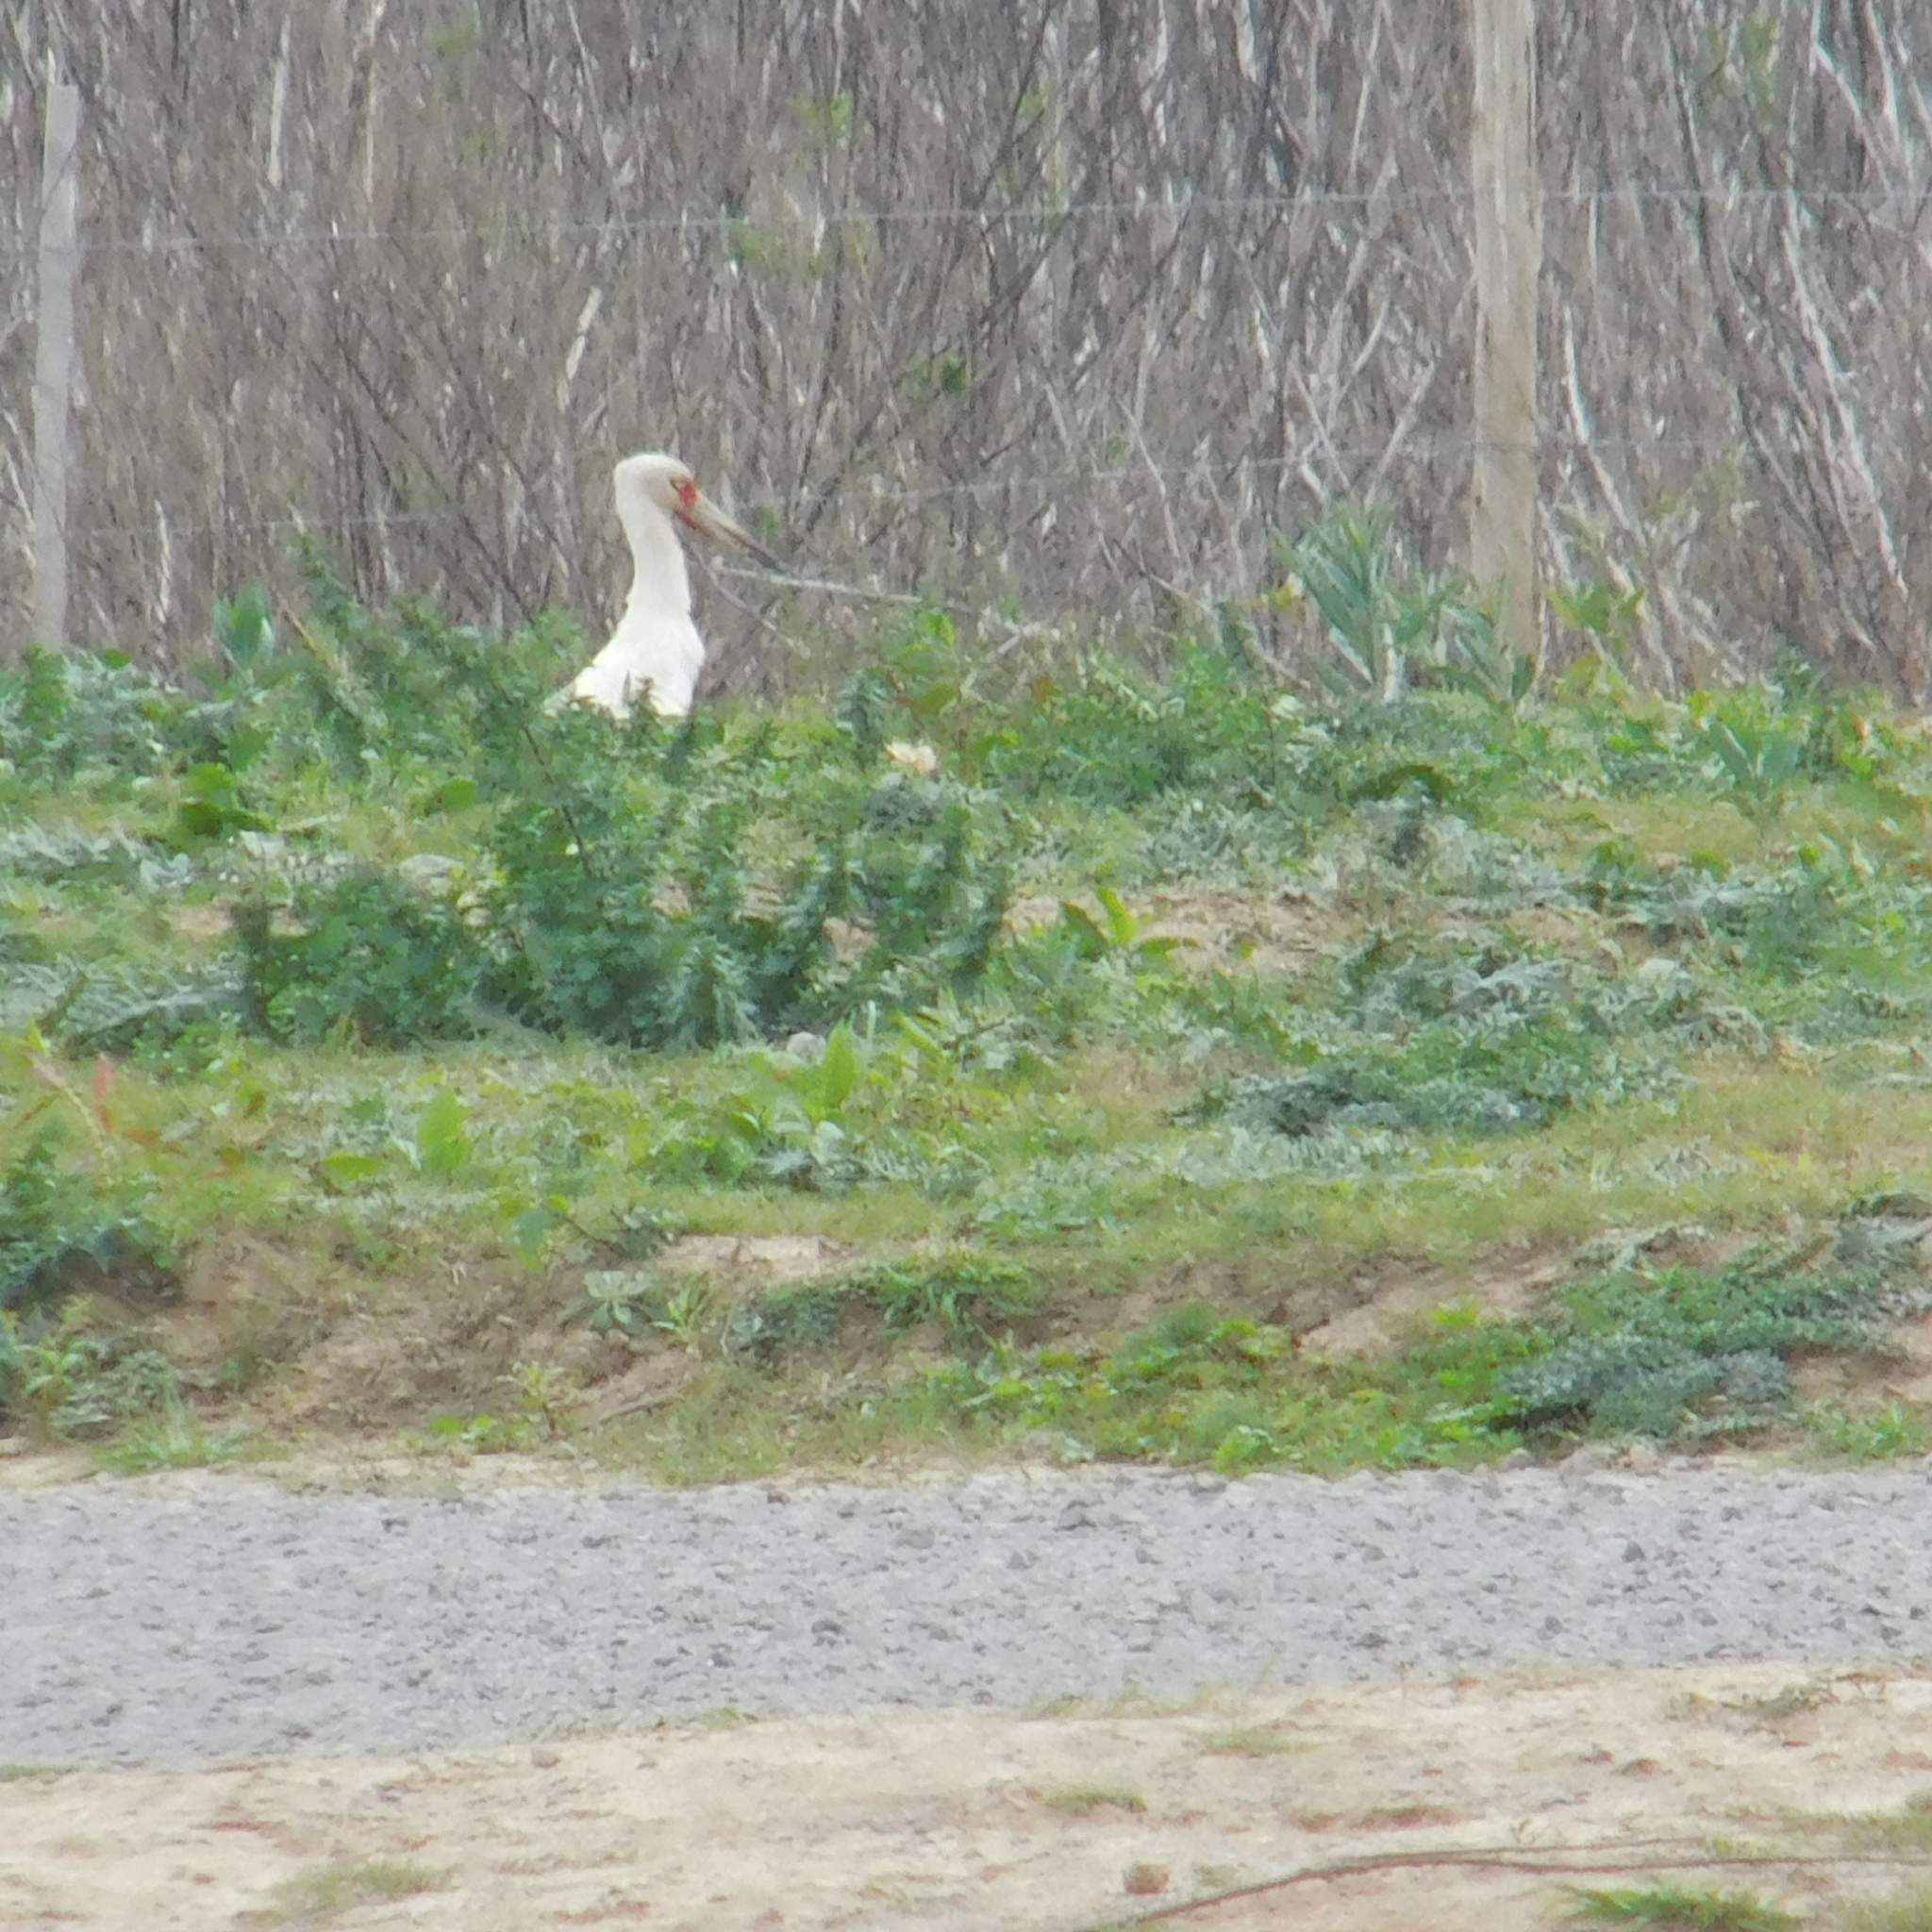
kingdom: Animalia
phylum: Chordata
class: Aves
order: Ciconiiformes
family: Ciconiidae
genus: Ciconia
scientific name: Ciconia maguari
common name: Maguari stork
